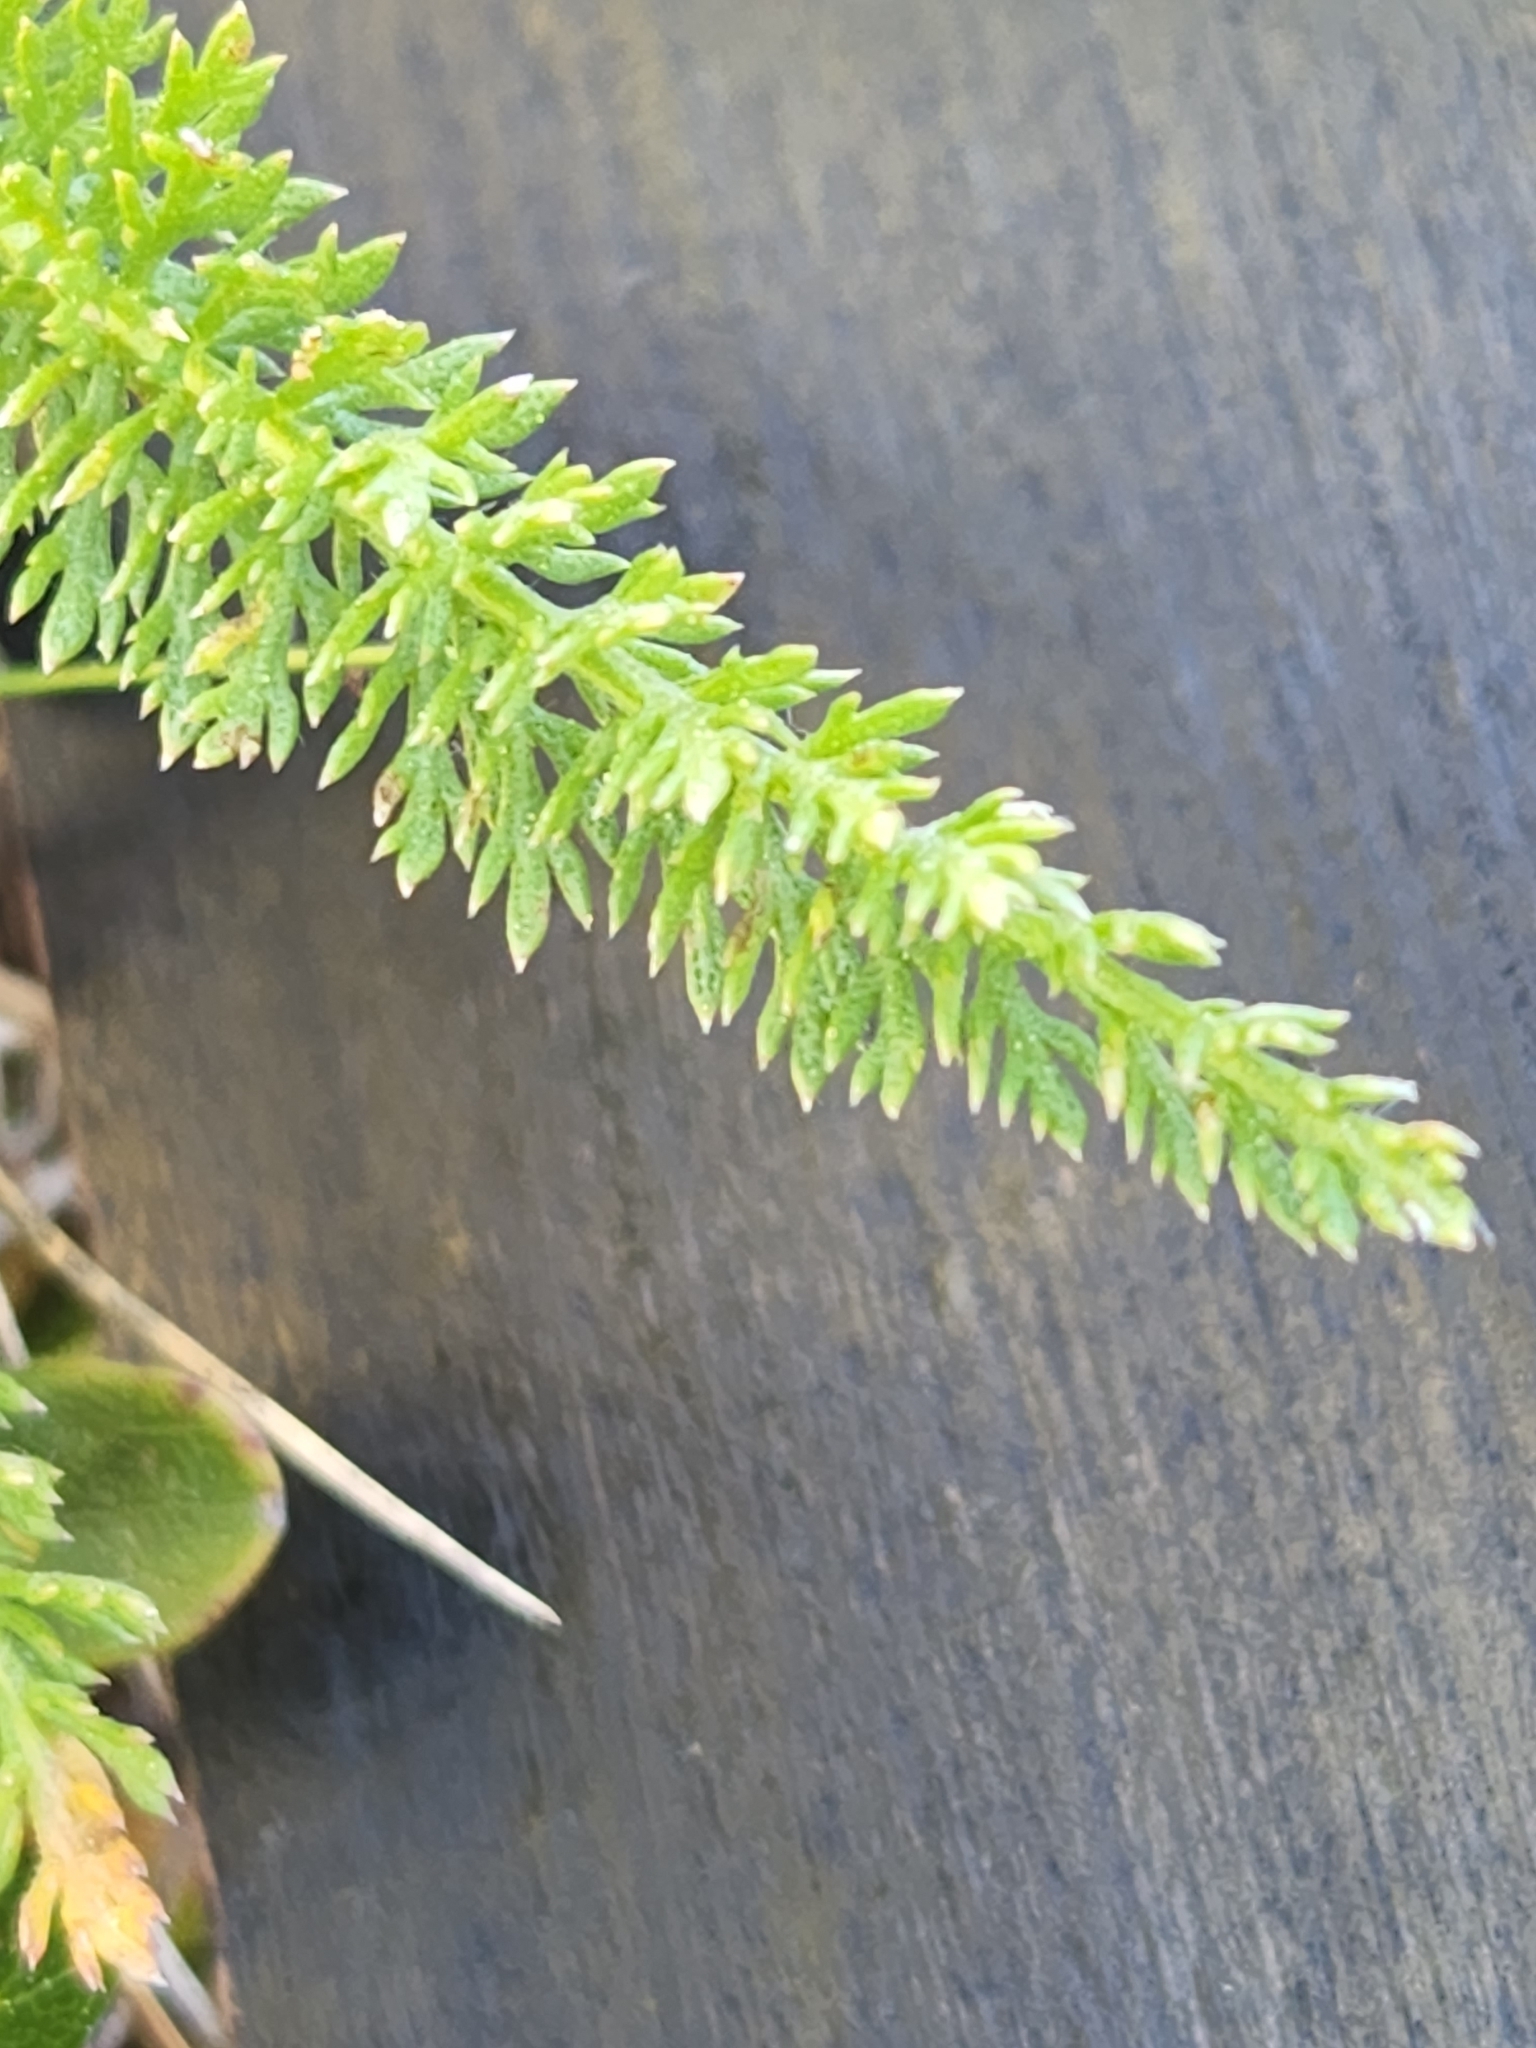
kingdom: Plantae
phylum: Tracheophyta
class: Magnoliopsida
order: Asterales
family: Asteraceae
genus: Achillea
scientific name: Achillea millefolium
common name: Yarrow
